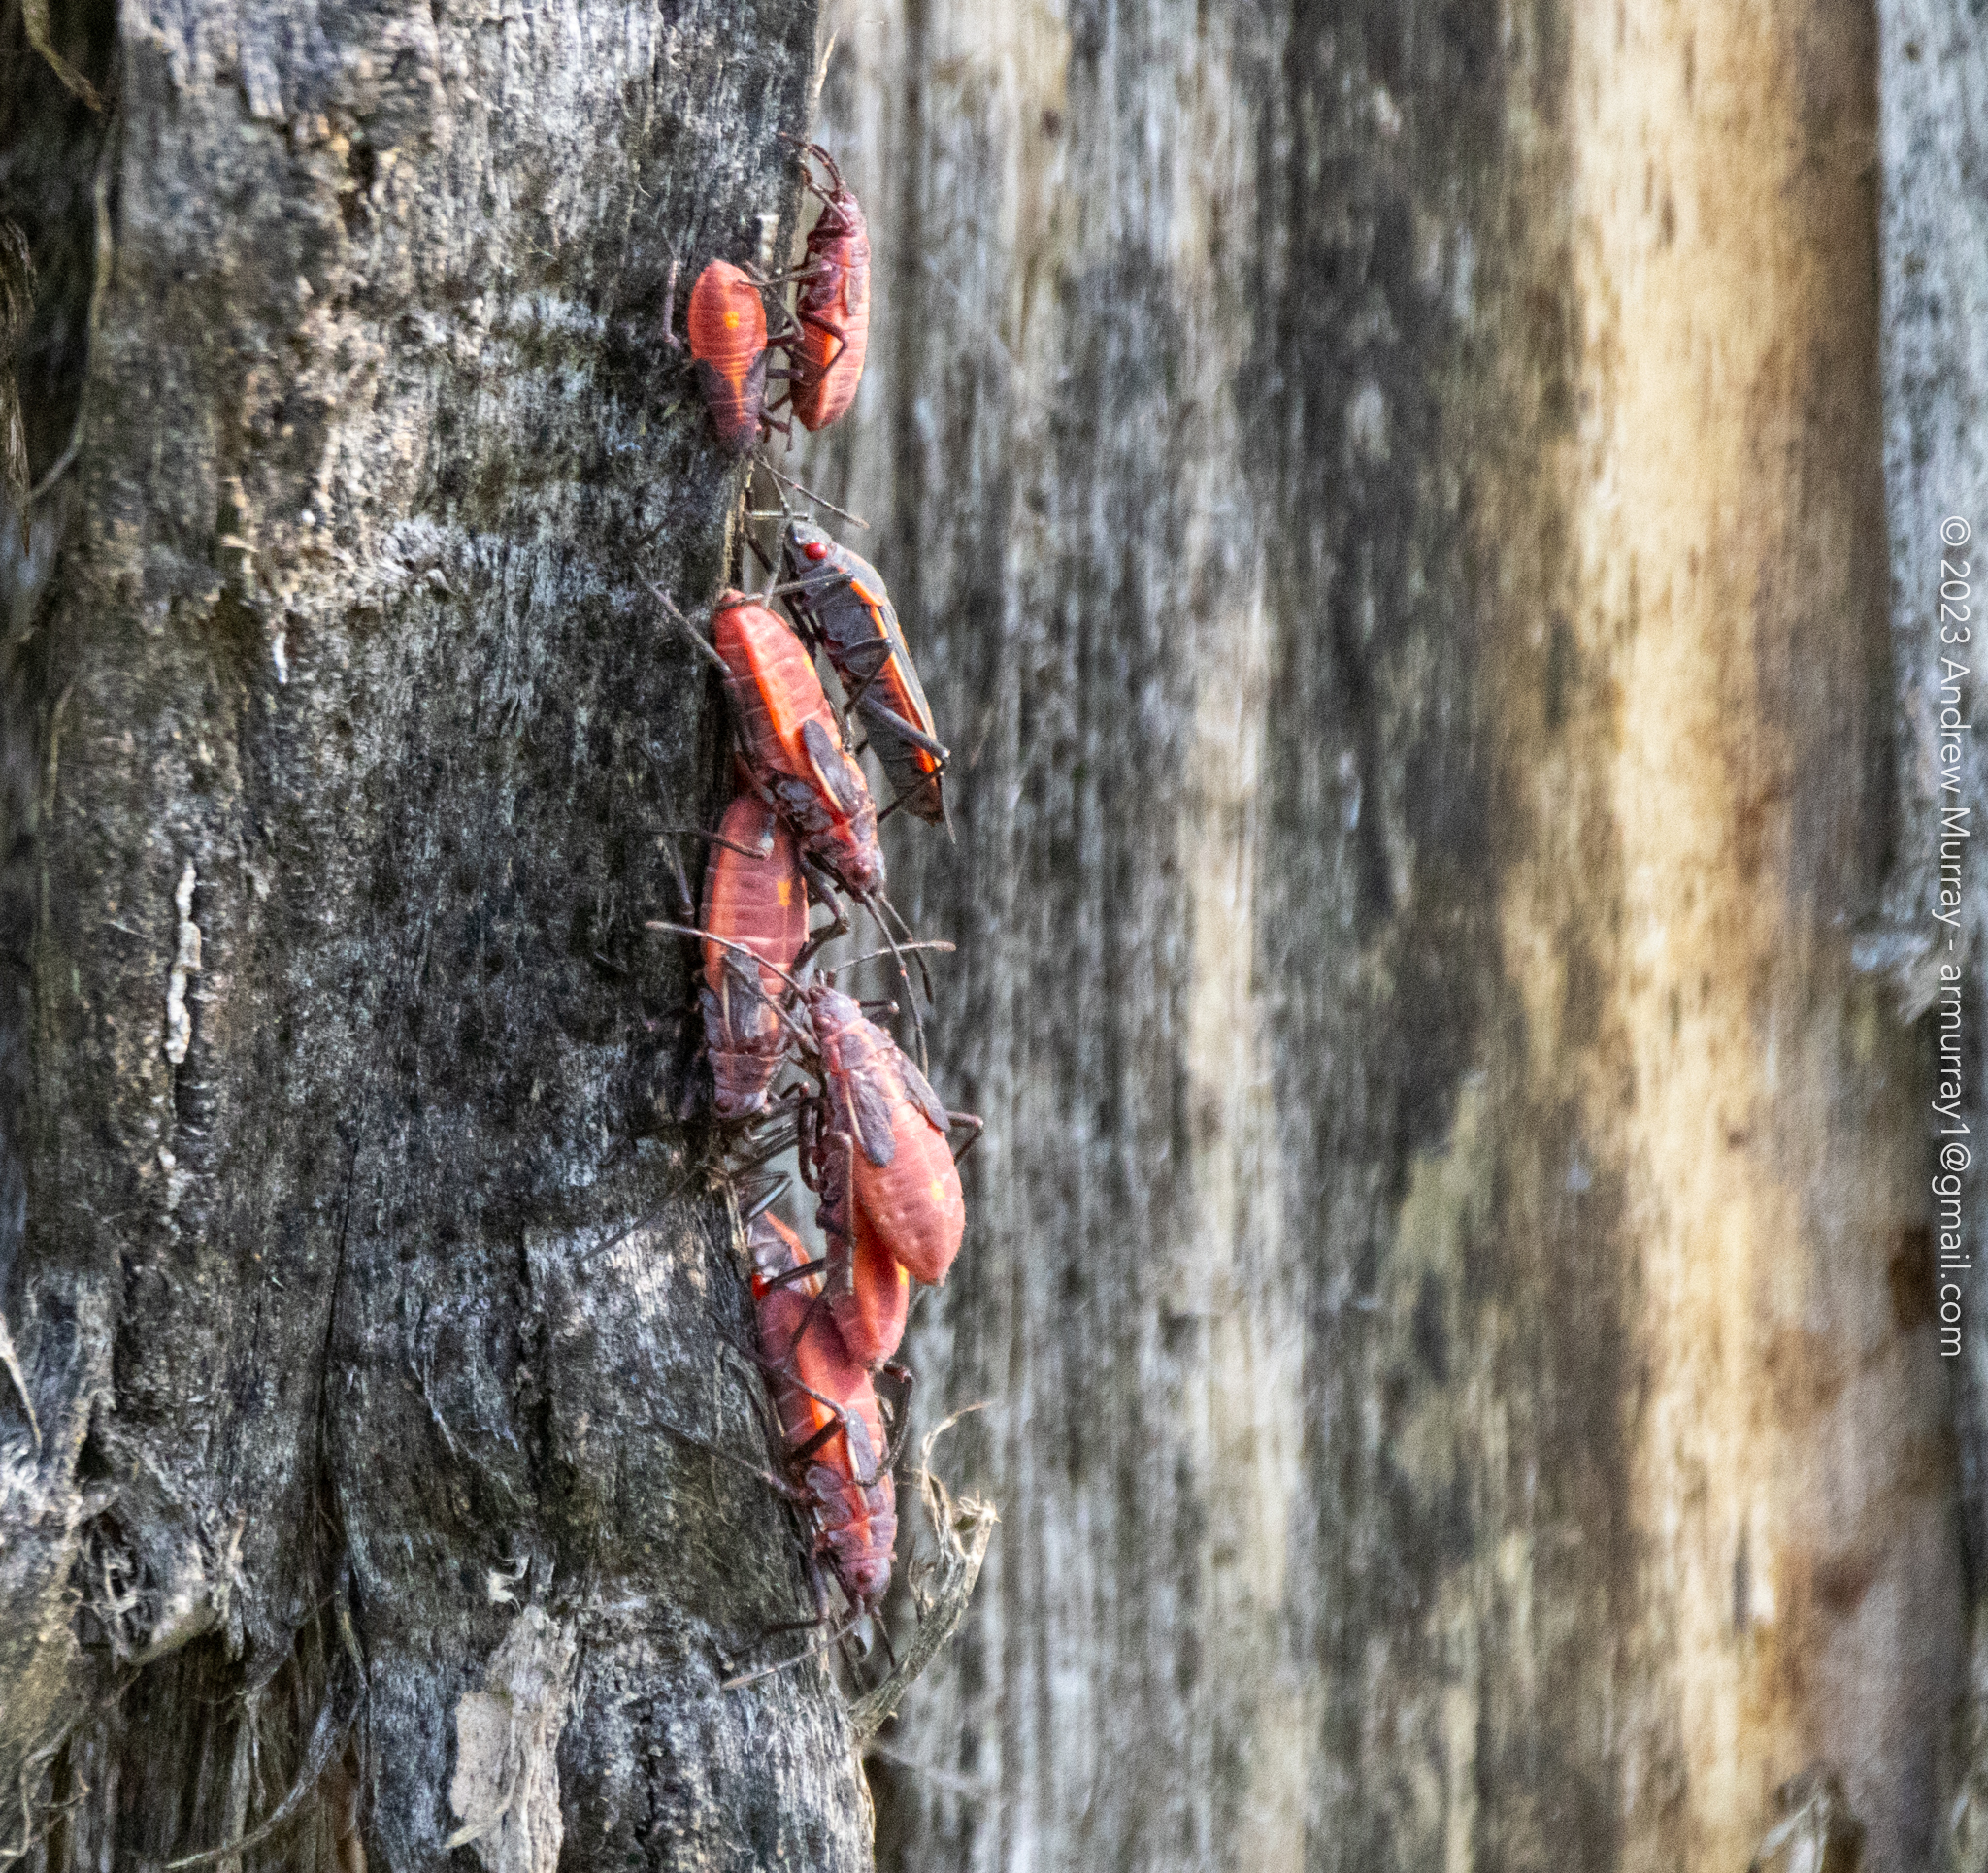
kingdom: Animalia
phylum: Arthropoda
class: Insecta
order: Hemiptera
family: Rhopalidae
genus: Boisea
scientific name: Boisea trivittata
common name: Boxelder bug
